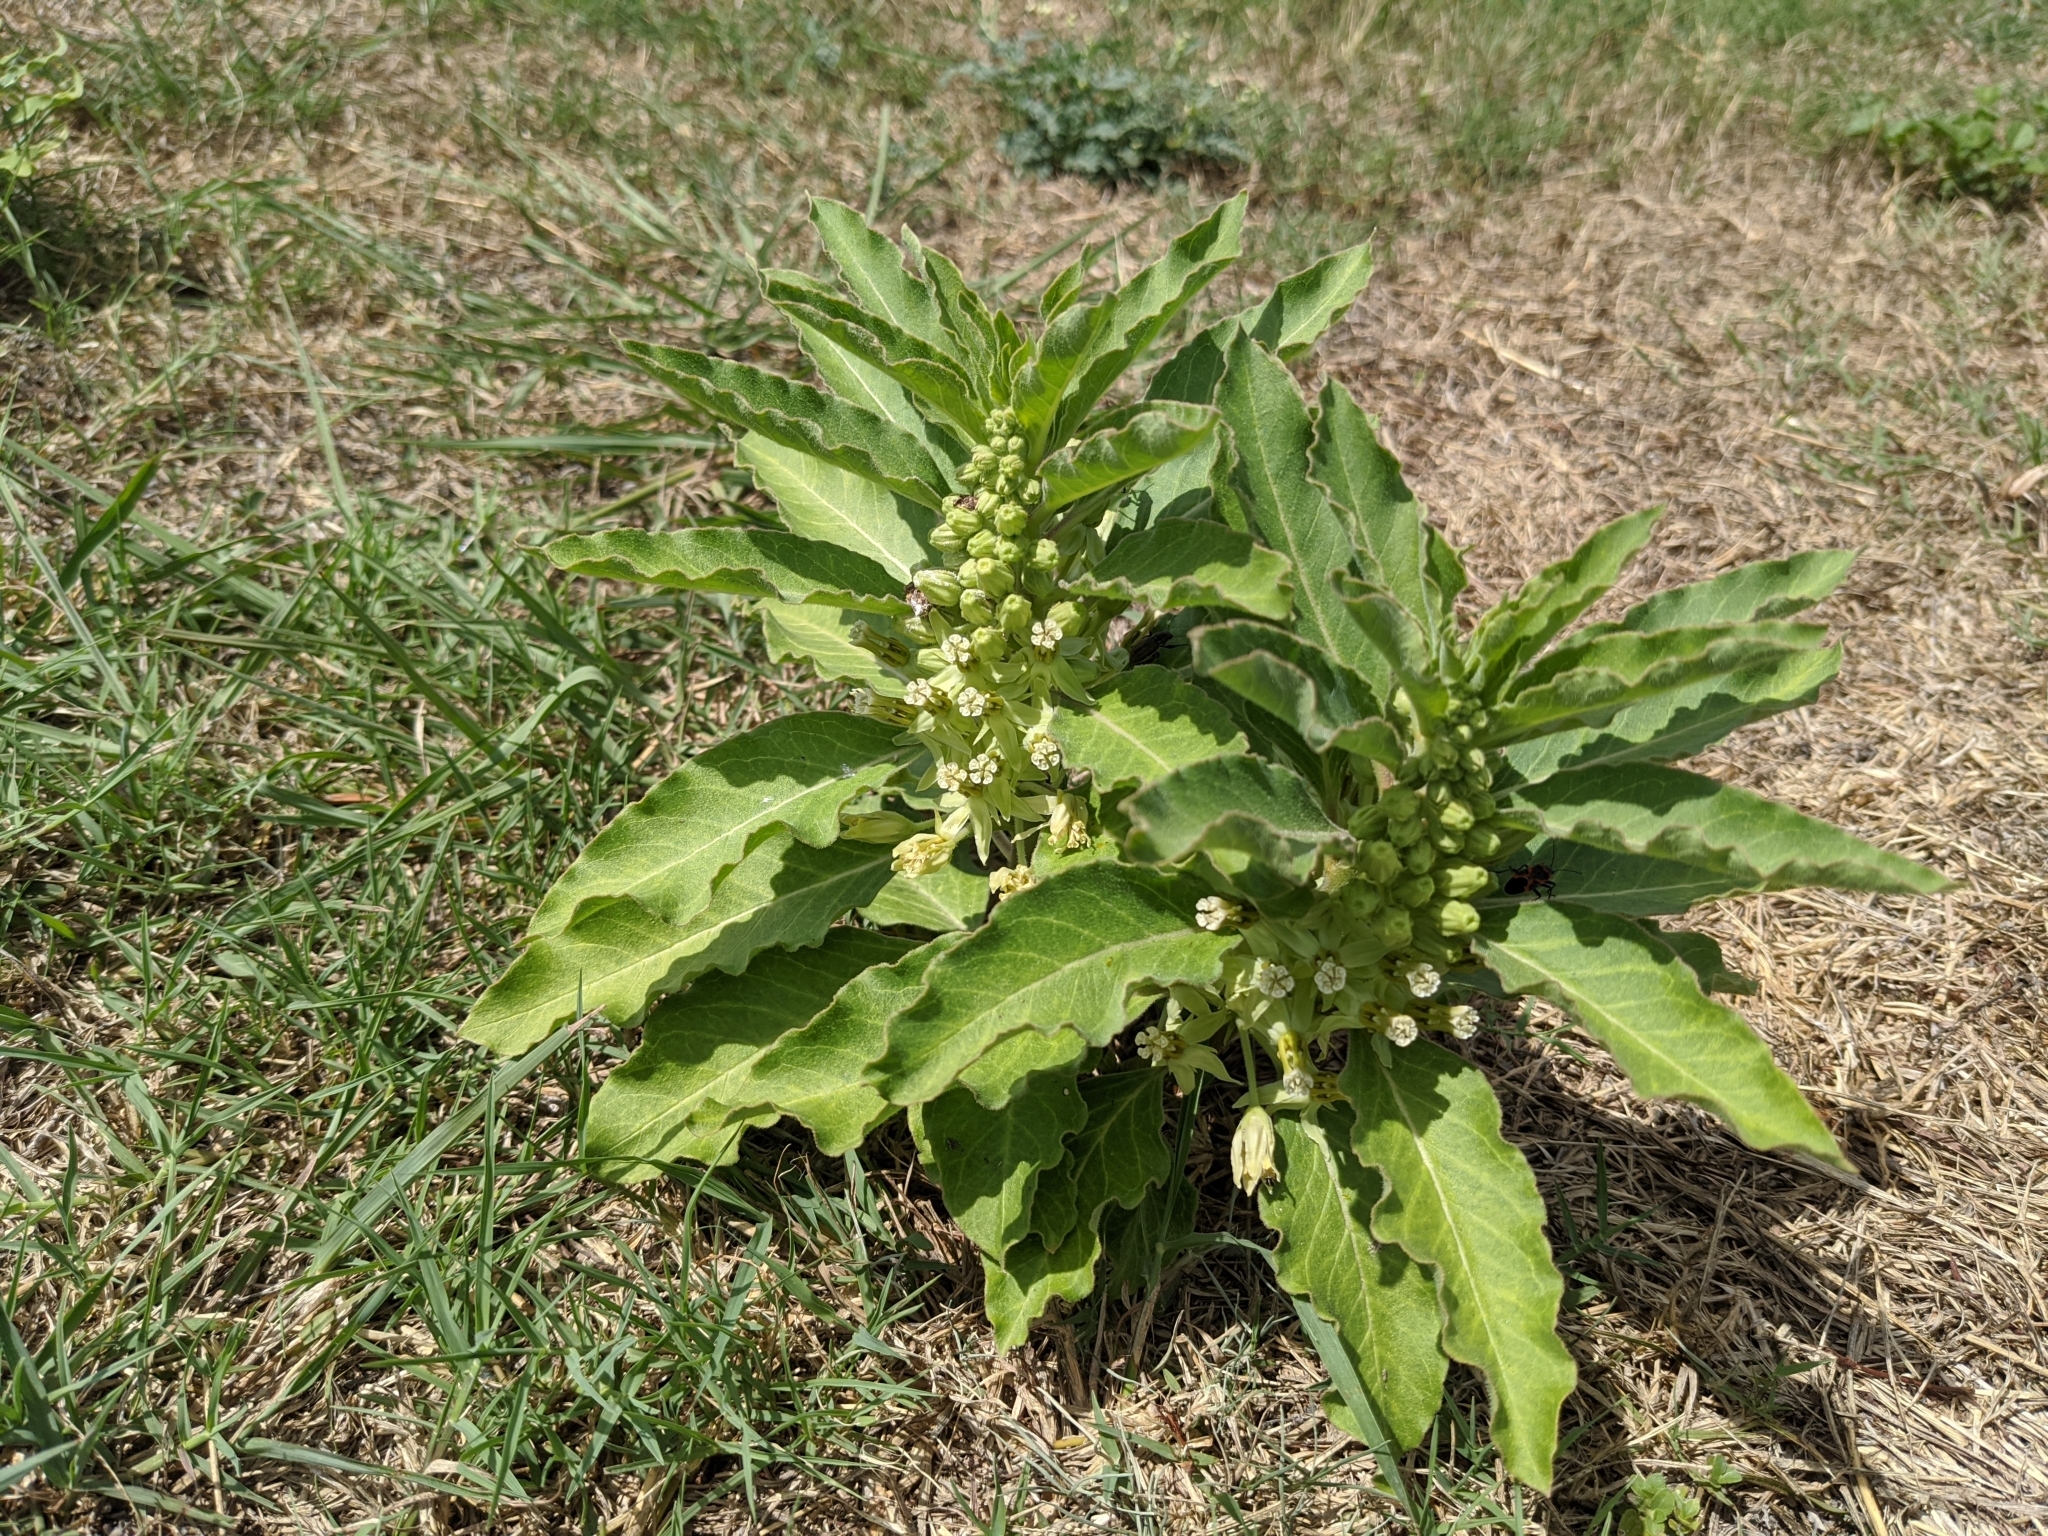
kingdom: Plantae
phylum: Tracheophyta
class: Magnoliopsida
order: Gentianales
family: Apocynaceae
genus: Asclepias
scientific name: Asclepias oenotheroides
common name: Zizotes milkweed
